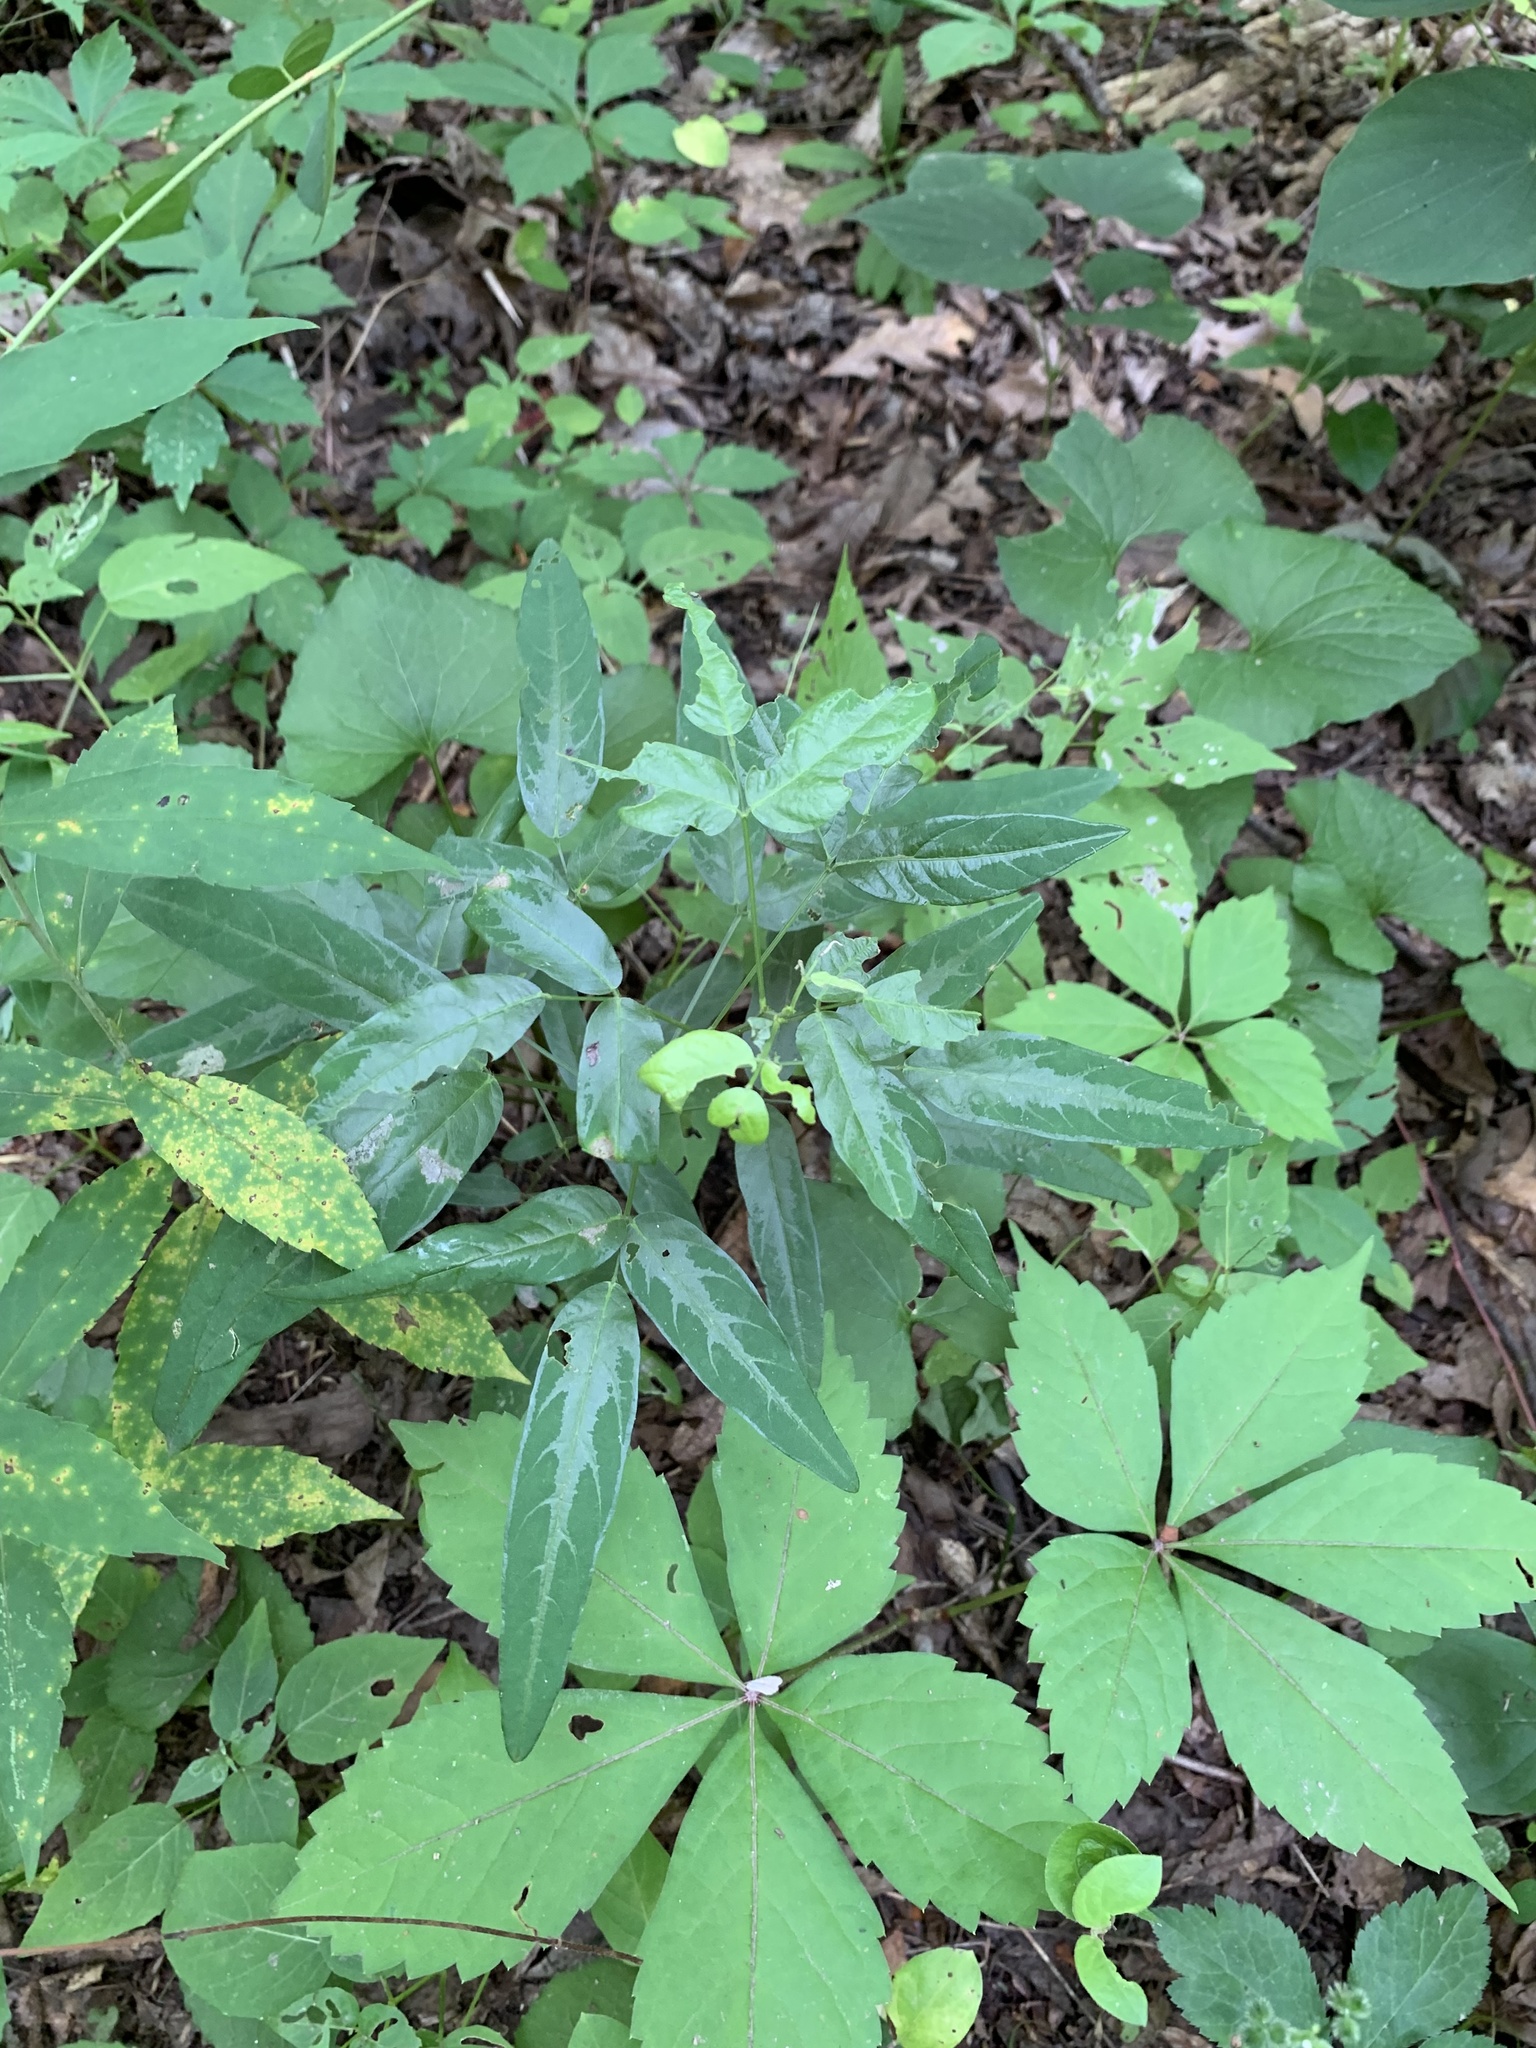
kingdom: Plantae
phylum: Tracheophyta
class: Magnoliopsida
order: Fabales
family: Fabaceae
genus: Desmodium
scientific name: Desmodium paniculatum
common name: Panicled tick-clover
